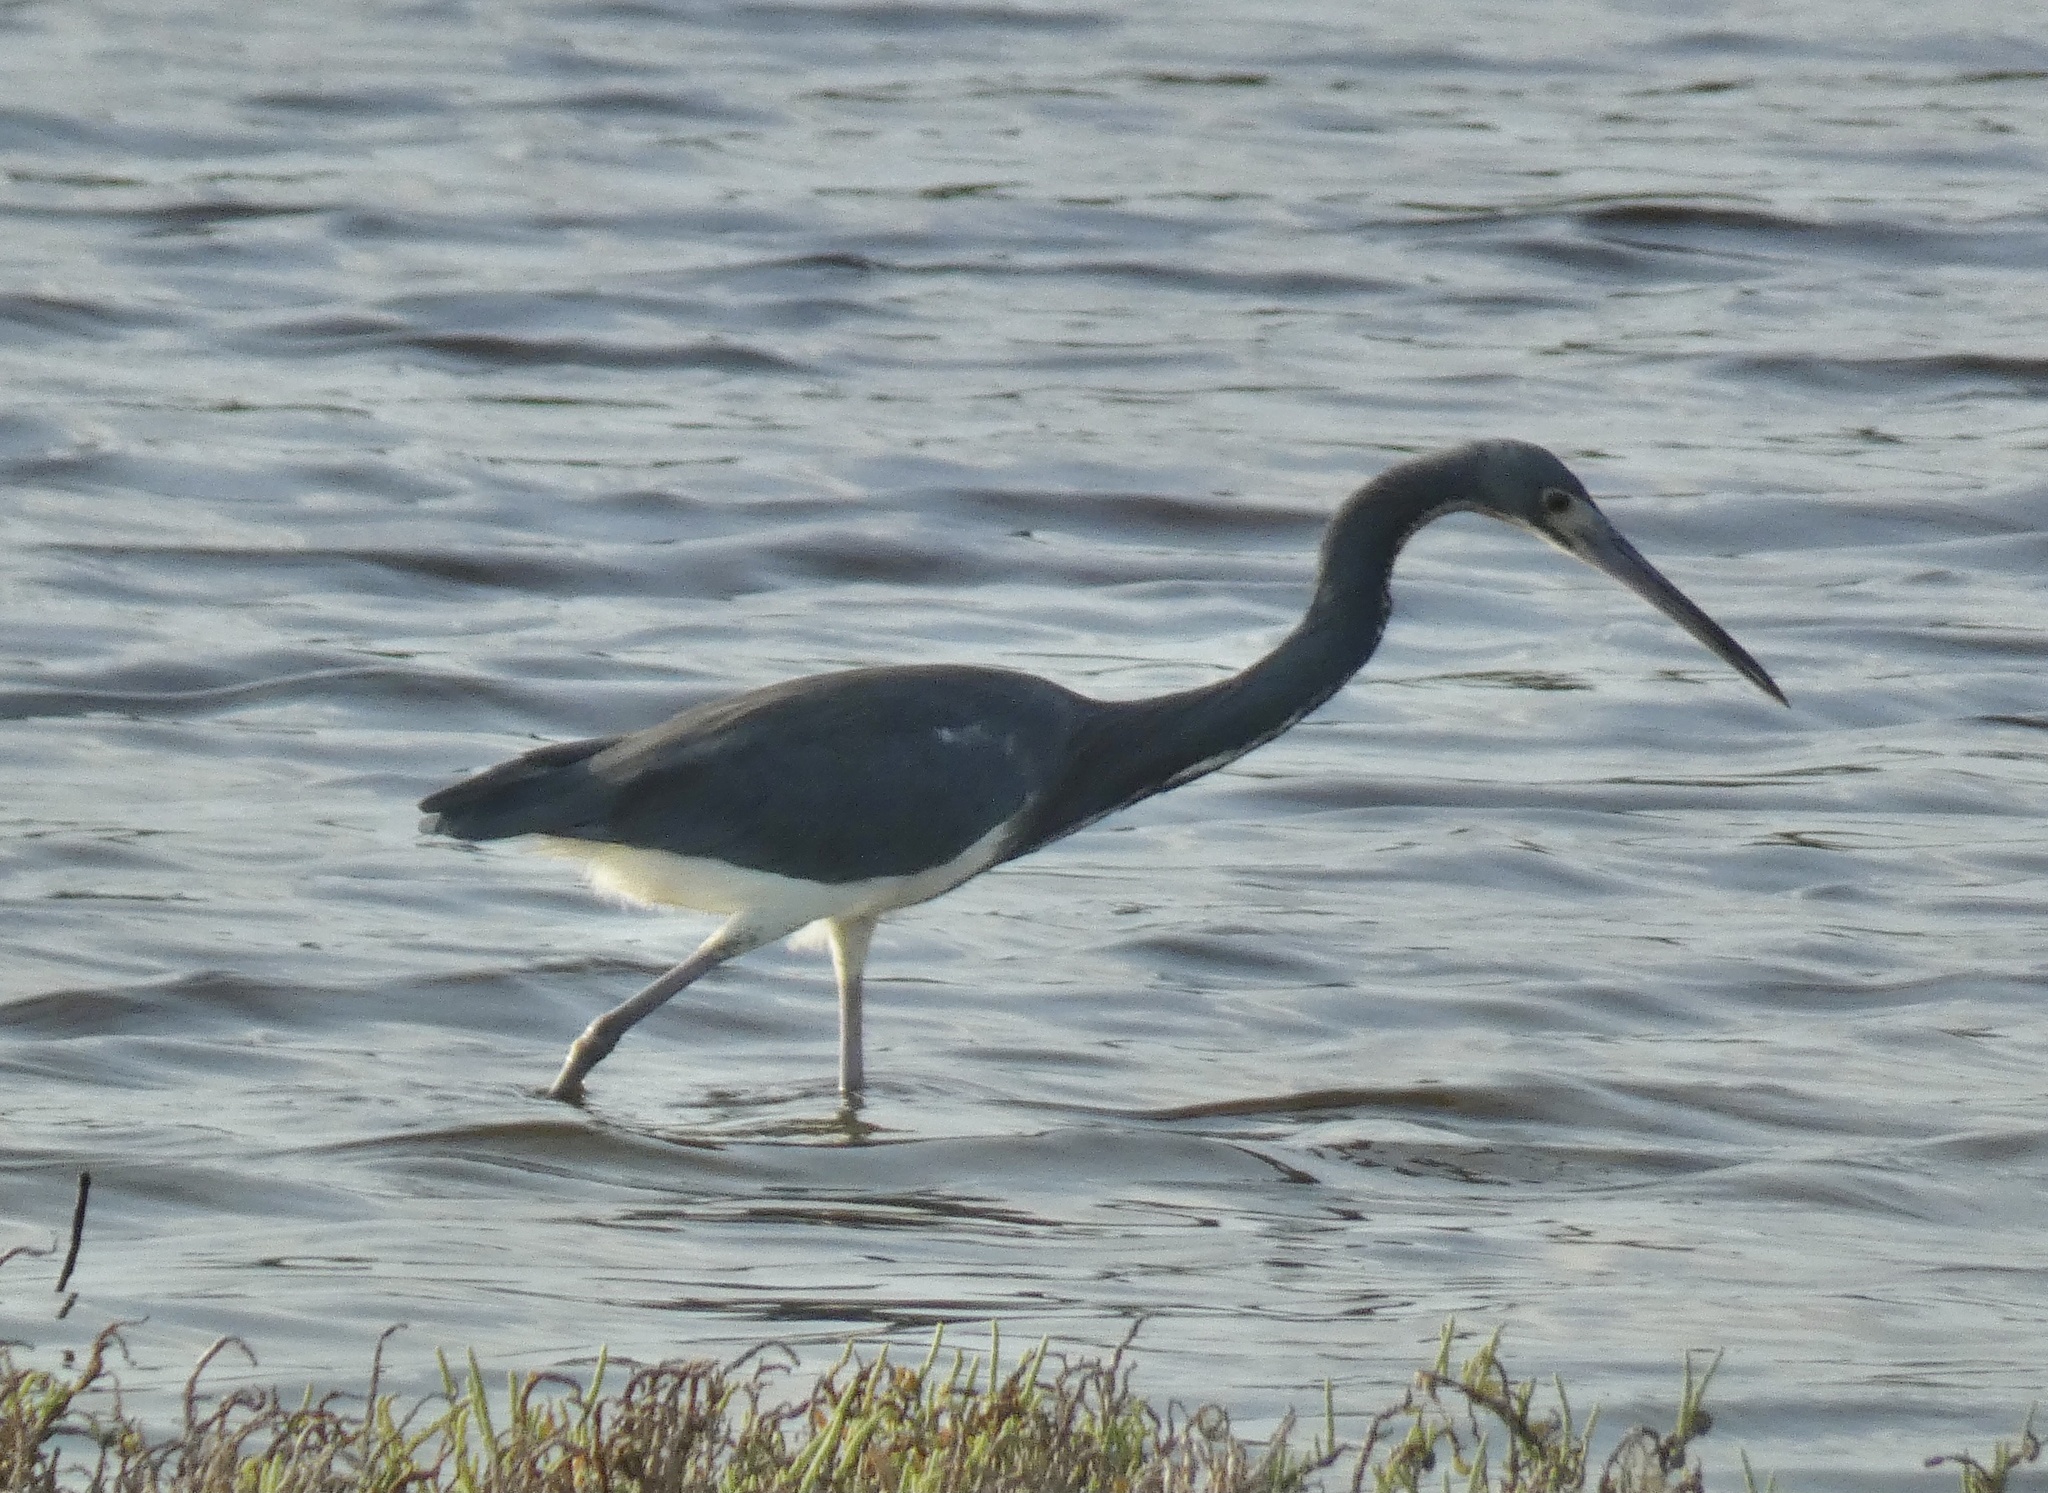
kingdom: Animalia
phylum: Chordata
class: Aves
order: Pelecaniformes
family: Ardeidae
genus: Egretta
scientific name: Egretta tricolor
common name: Tricolored heron
